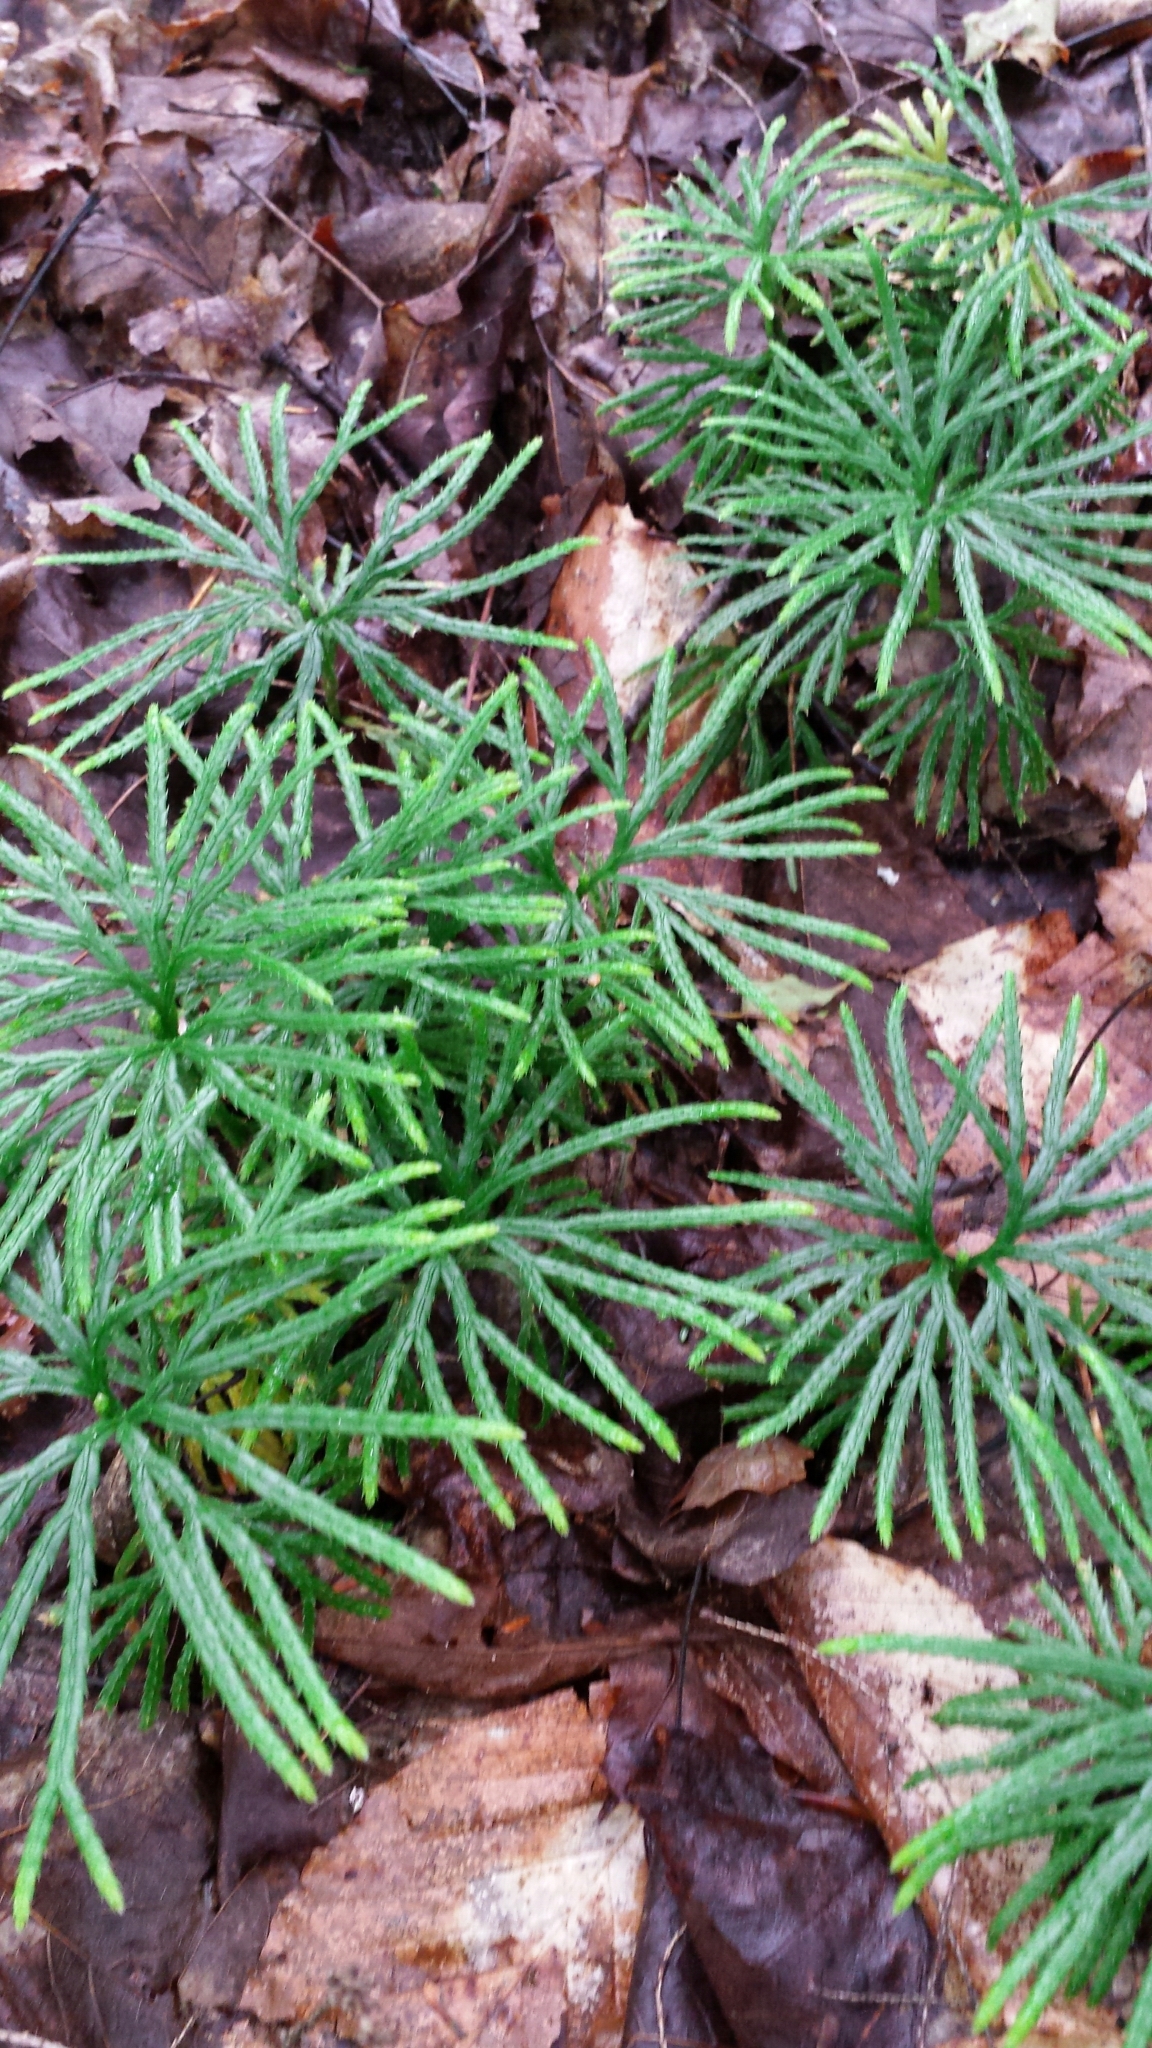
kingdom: Plantae
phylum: Tracheophyta
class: Lycopodiopsida
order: Lycopodiales
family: Lycopodiaceae
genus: Diphasiastrum
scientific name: Diphasiastrum digitatum
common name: Southern running-pine
